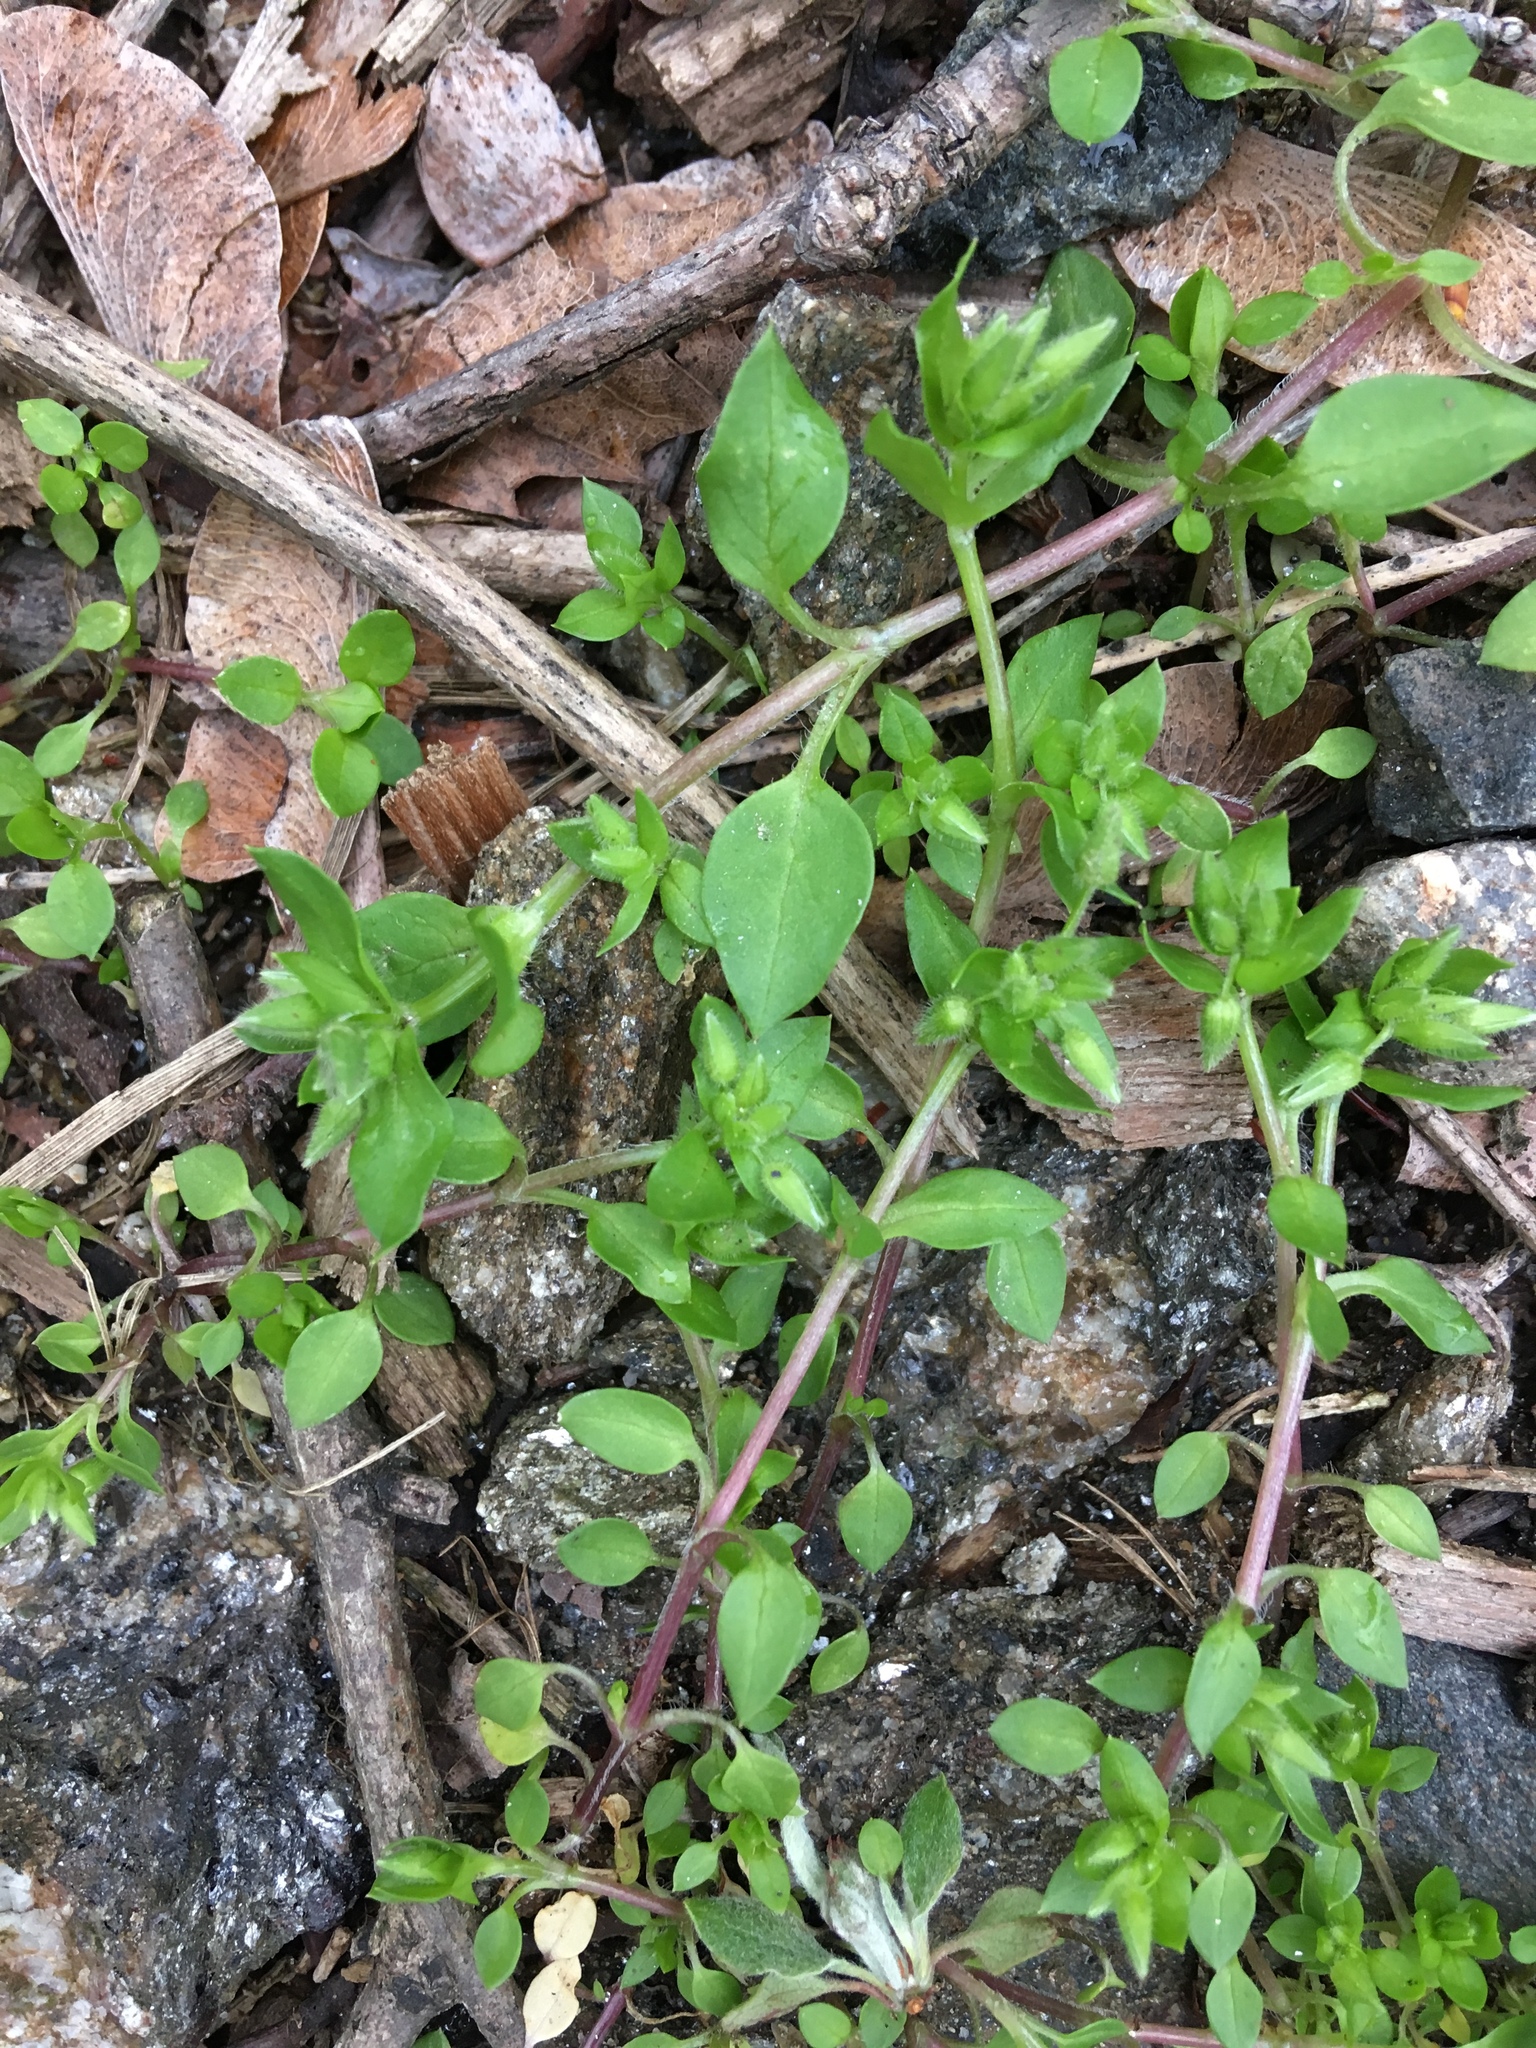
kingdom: Plantae
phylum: Tracheophyta
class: Magnoliopsida
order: Caryophyllales
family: Caryophyllaceae
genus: Stellaria
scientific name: Stellaria media
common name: Common chickweed
